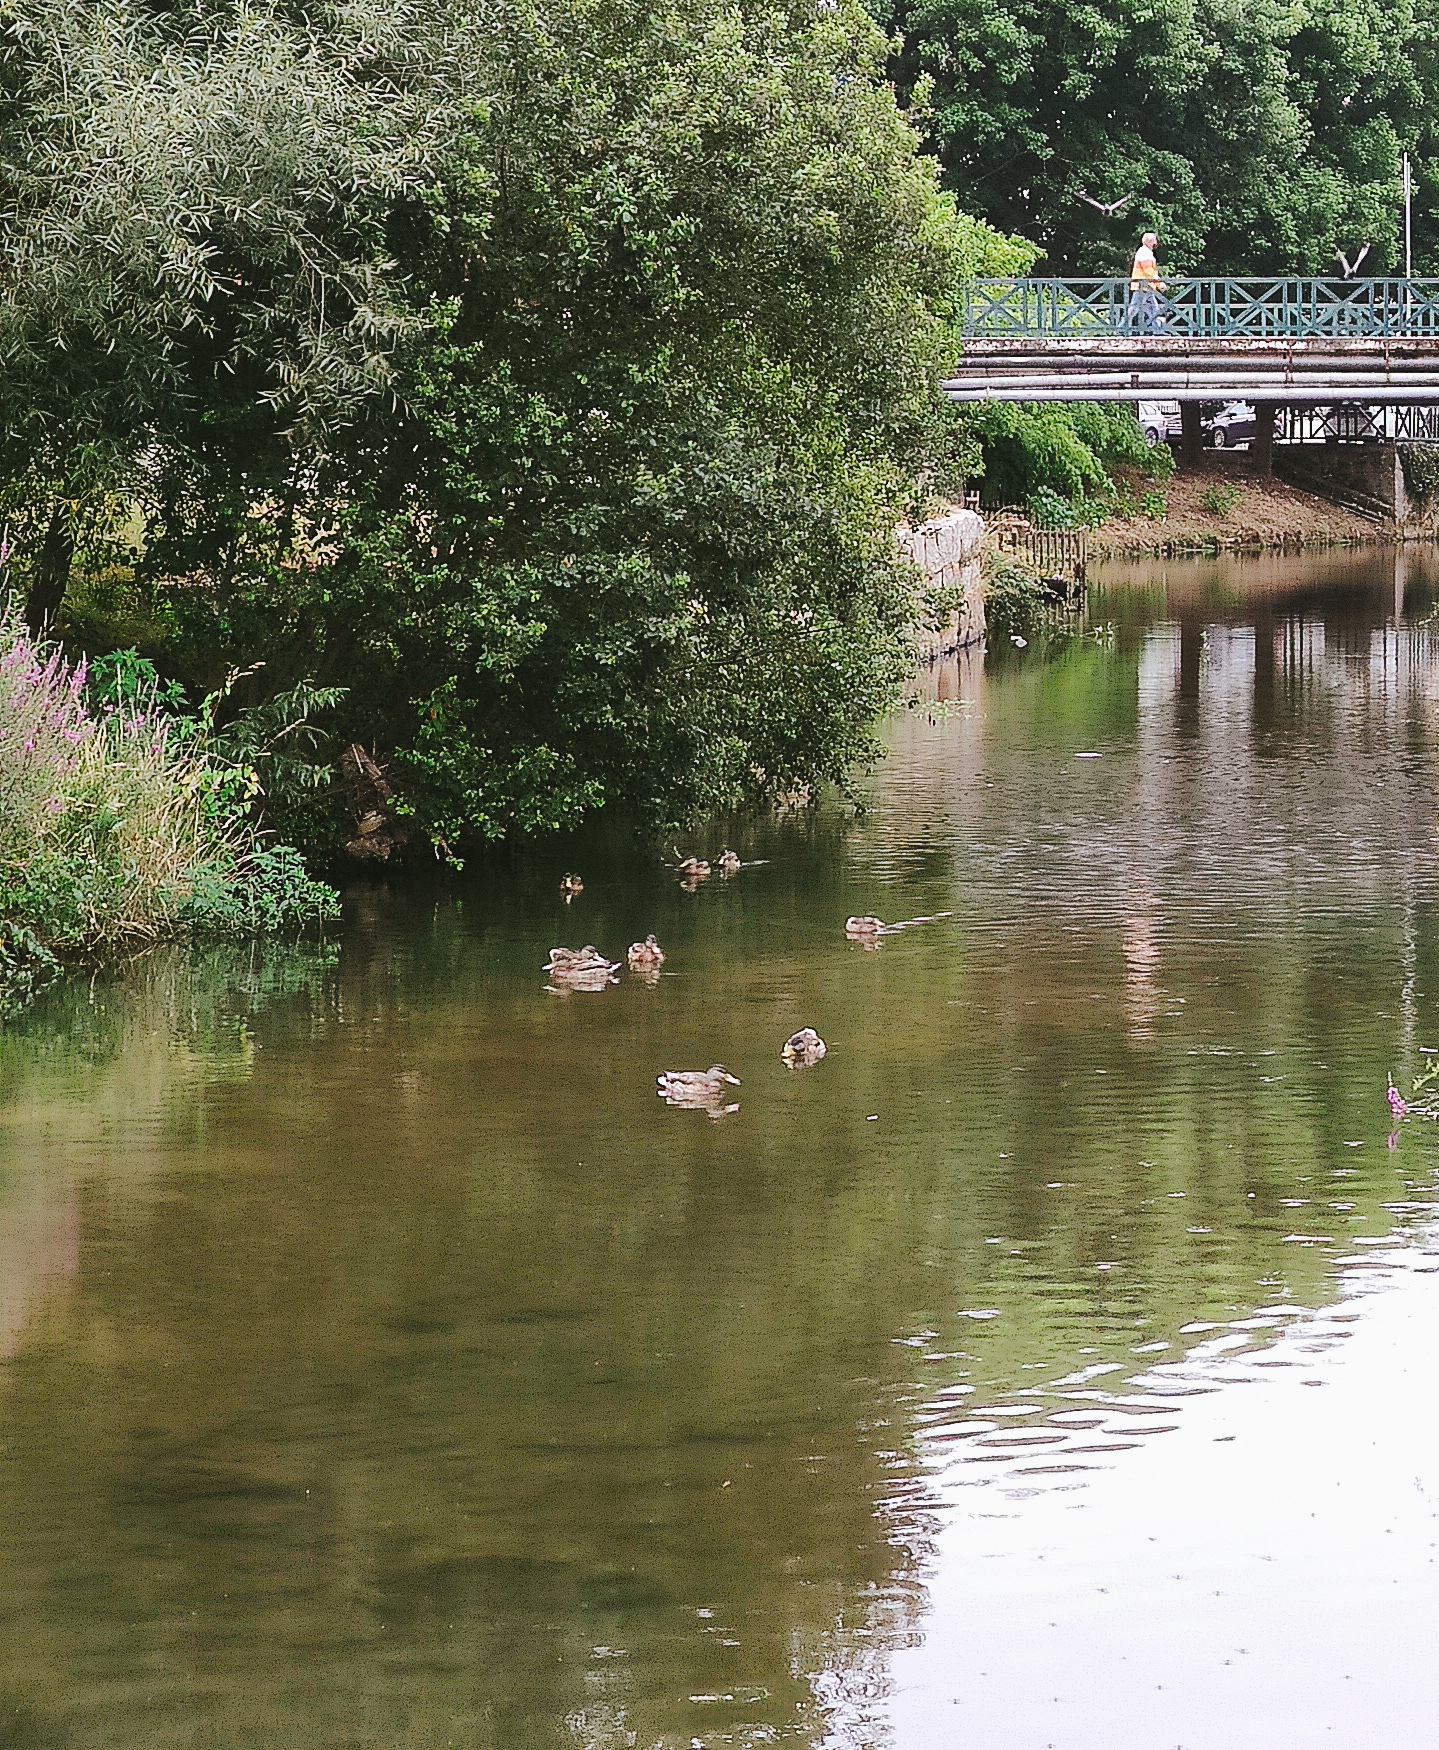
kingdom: Animalia
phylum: Chordata
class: Aves
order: Anseriformes
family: Anatidae
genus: Anas
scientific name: Anas platyrhynchos
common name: Mallard
